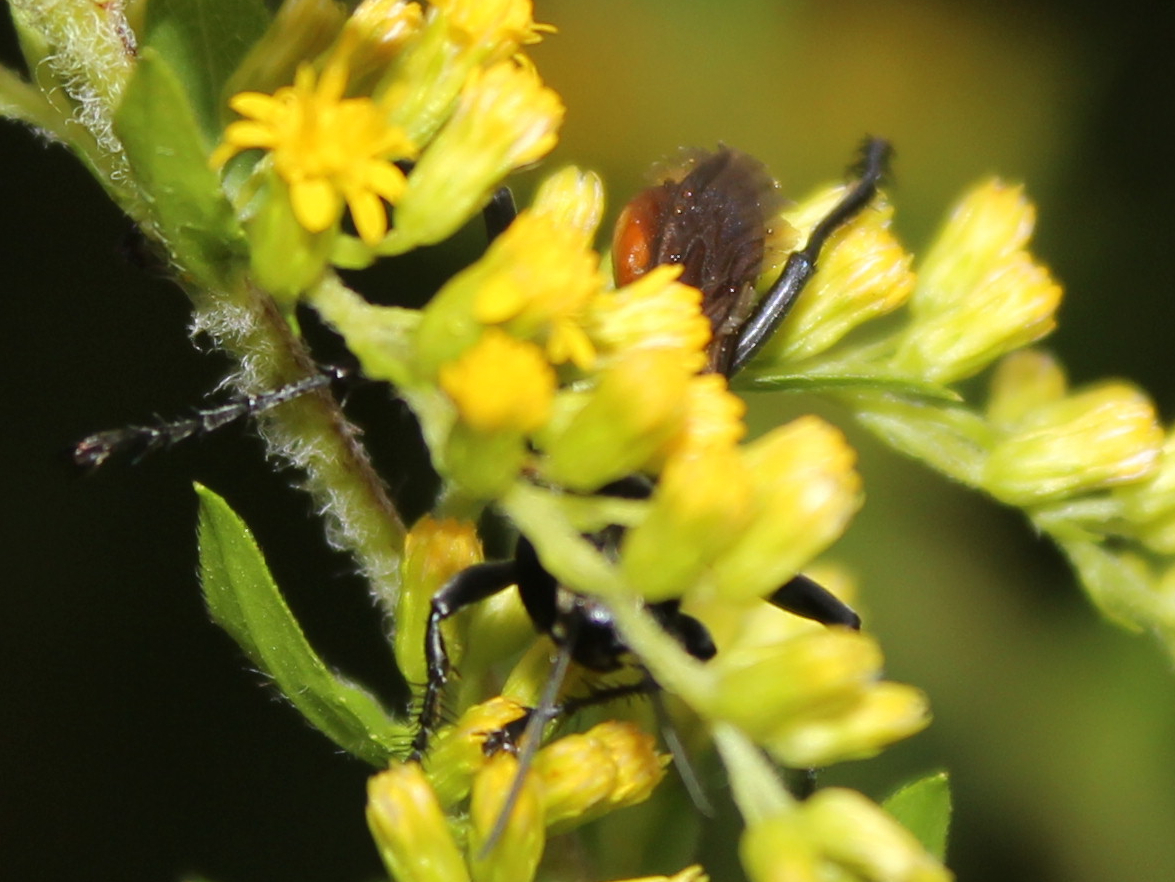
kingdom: Animalia
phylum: Arthropoda
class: Insecta
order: Hymenoptera
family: Sphecidae
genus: Prionyx
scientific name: Prionyx parkeri
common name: Parker's thread-waisted wasp
